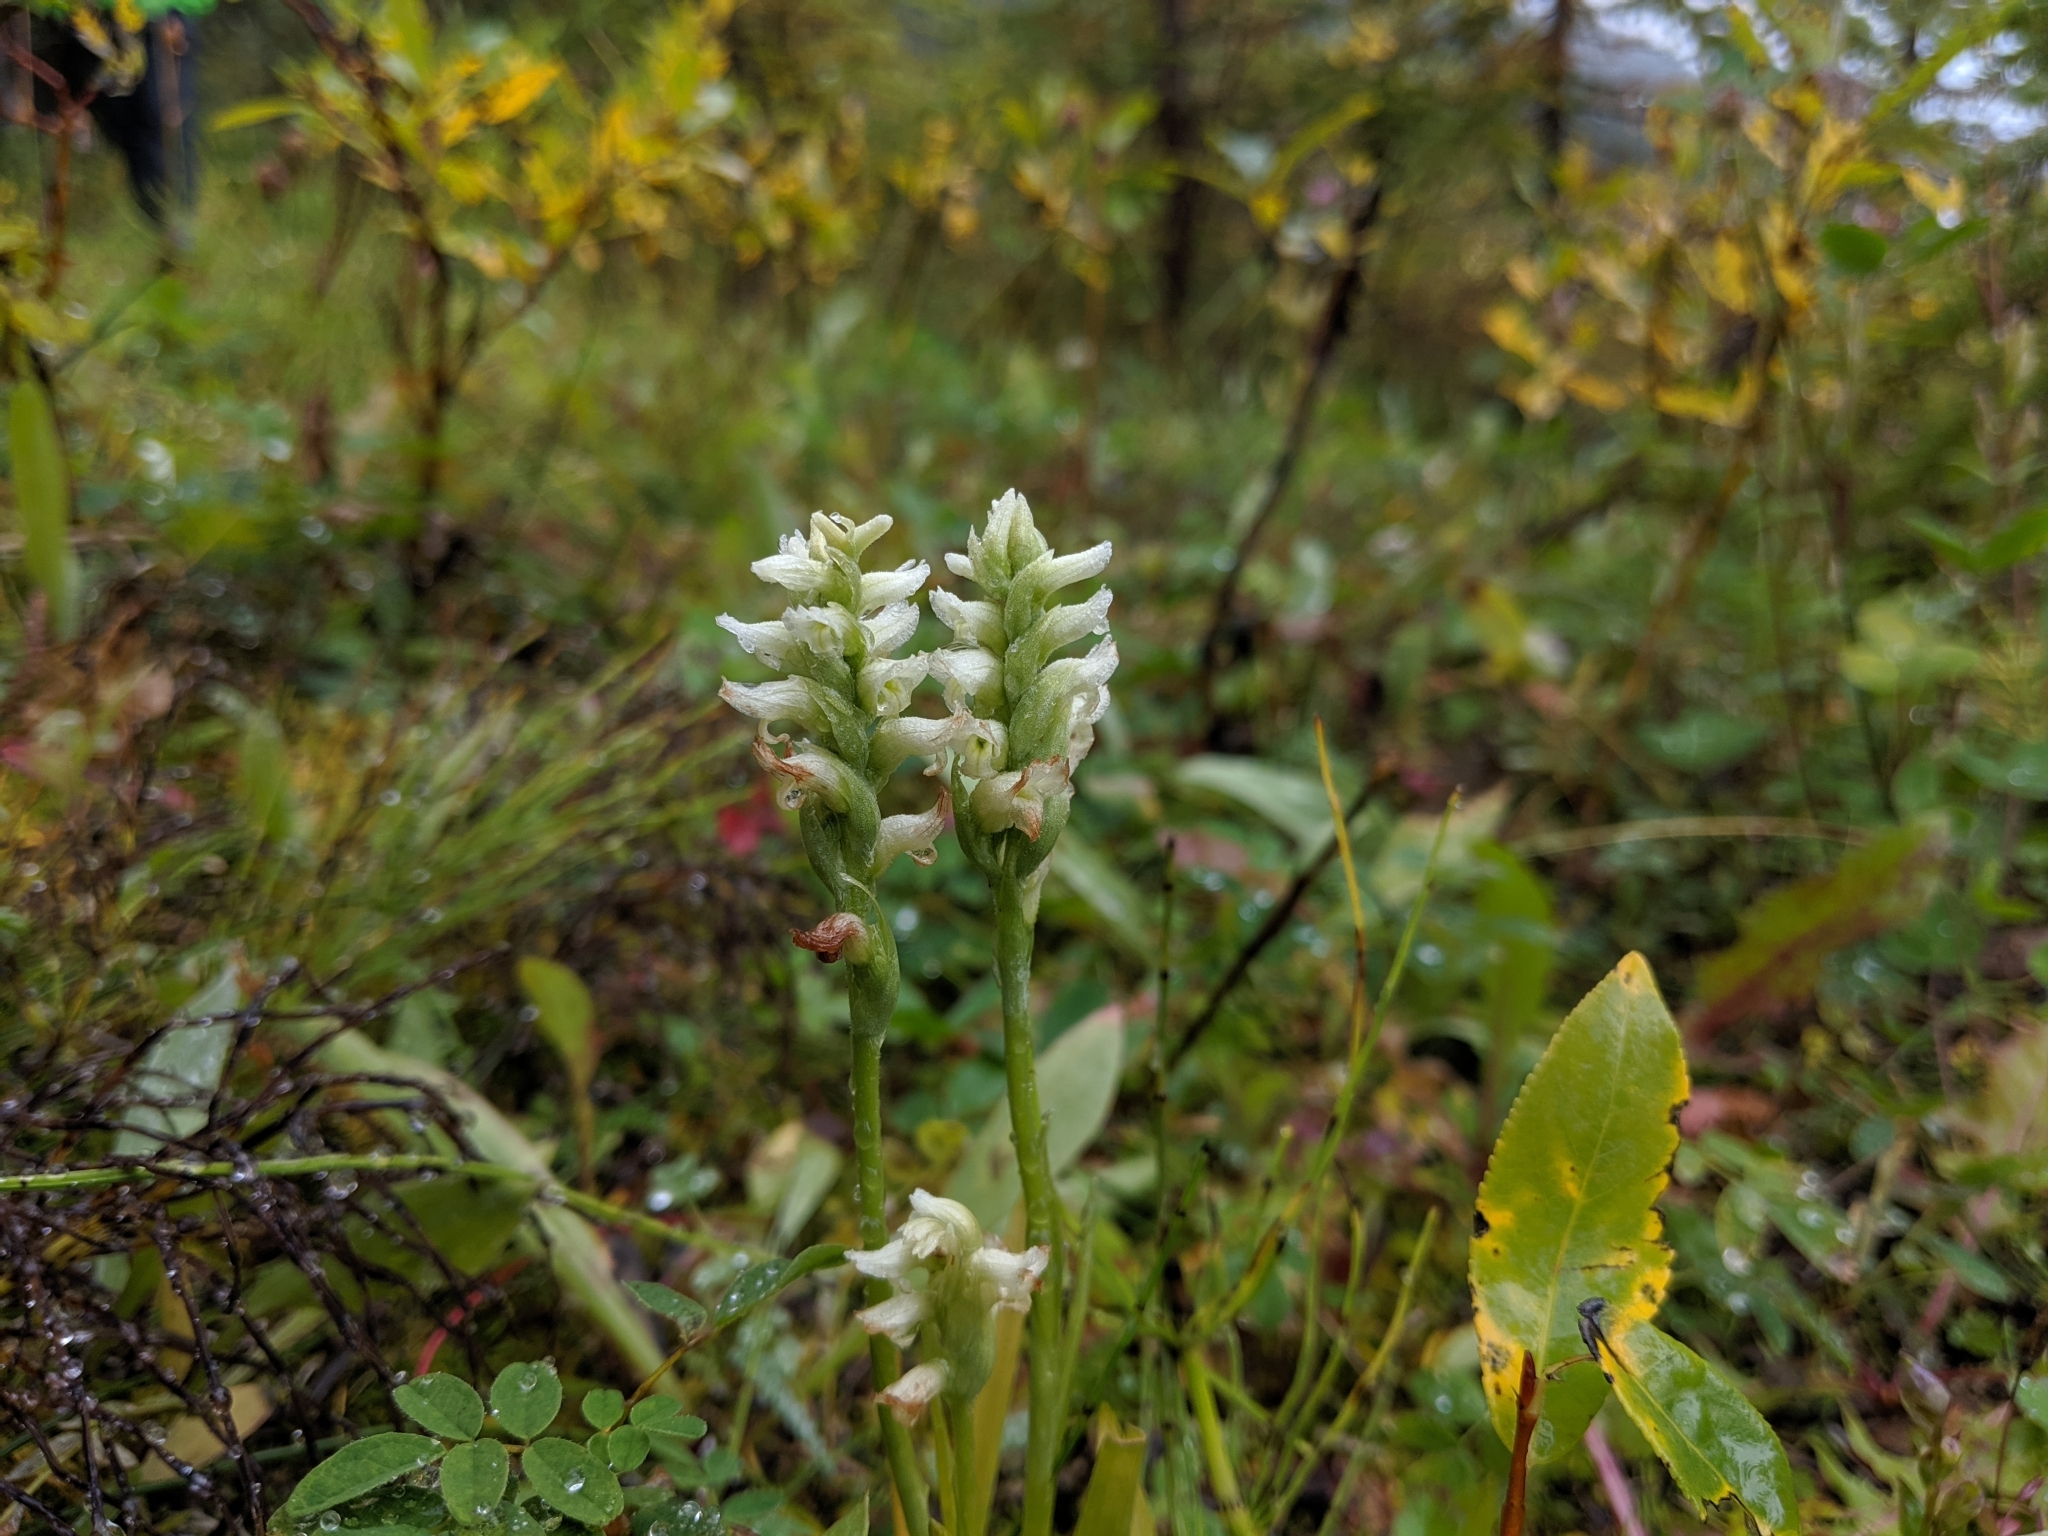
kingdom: Plantae
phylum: Tracheophyta
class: Liliopsida
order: Asparagales
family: Orchidaceae
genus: Spiranthes
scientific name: Spiranthes romanzoffiana
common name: Irish lady's-tresses
